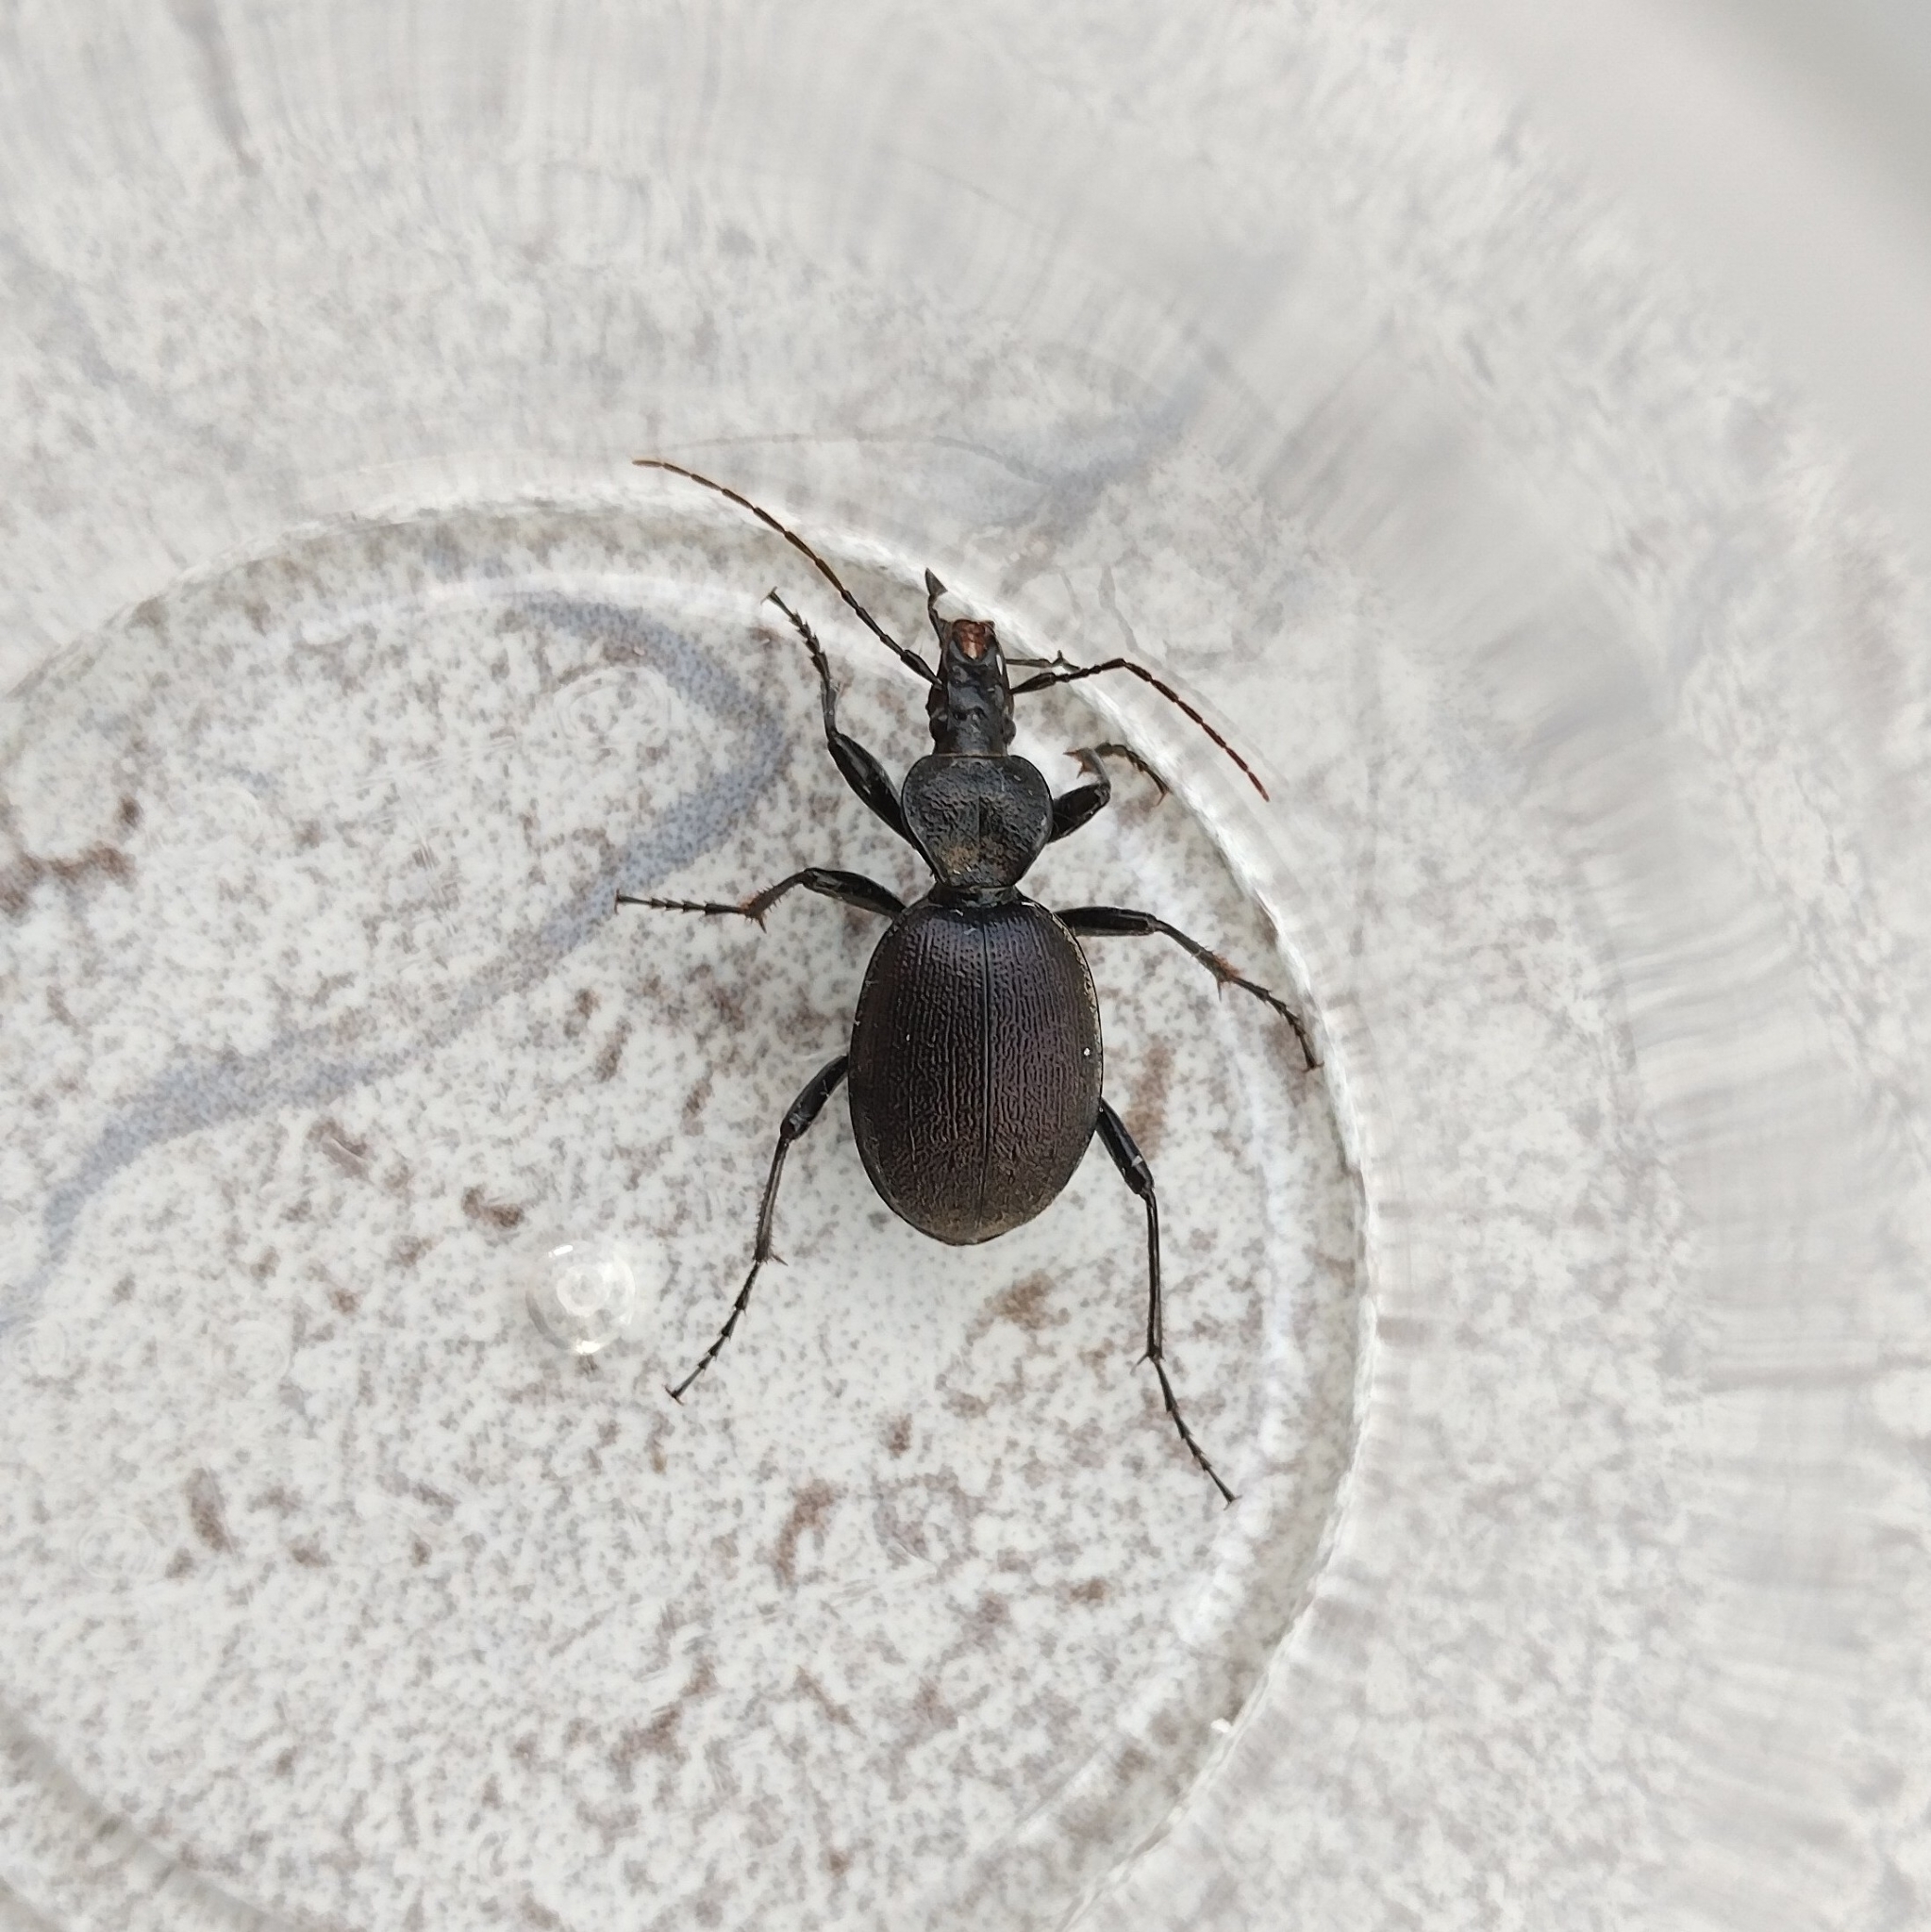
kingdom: Animalia
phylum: Arthropoda
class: Insecta
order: Coleoptera
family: Carabidae
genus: Cychrus
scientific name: Cychrus semigranosus
